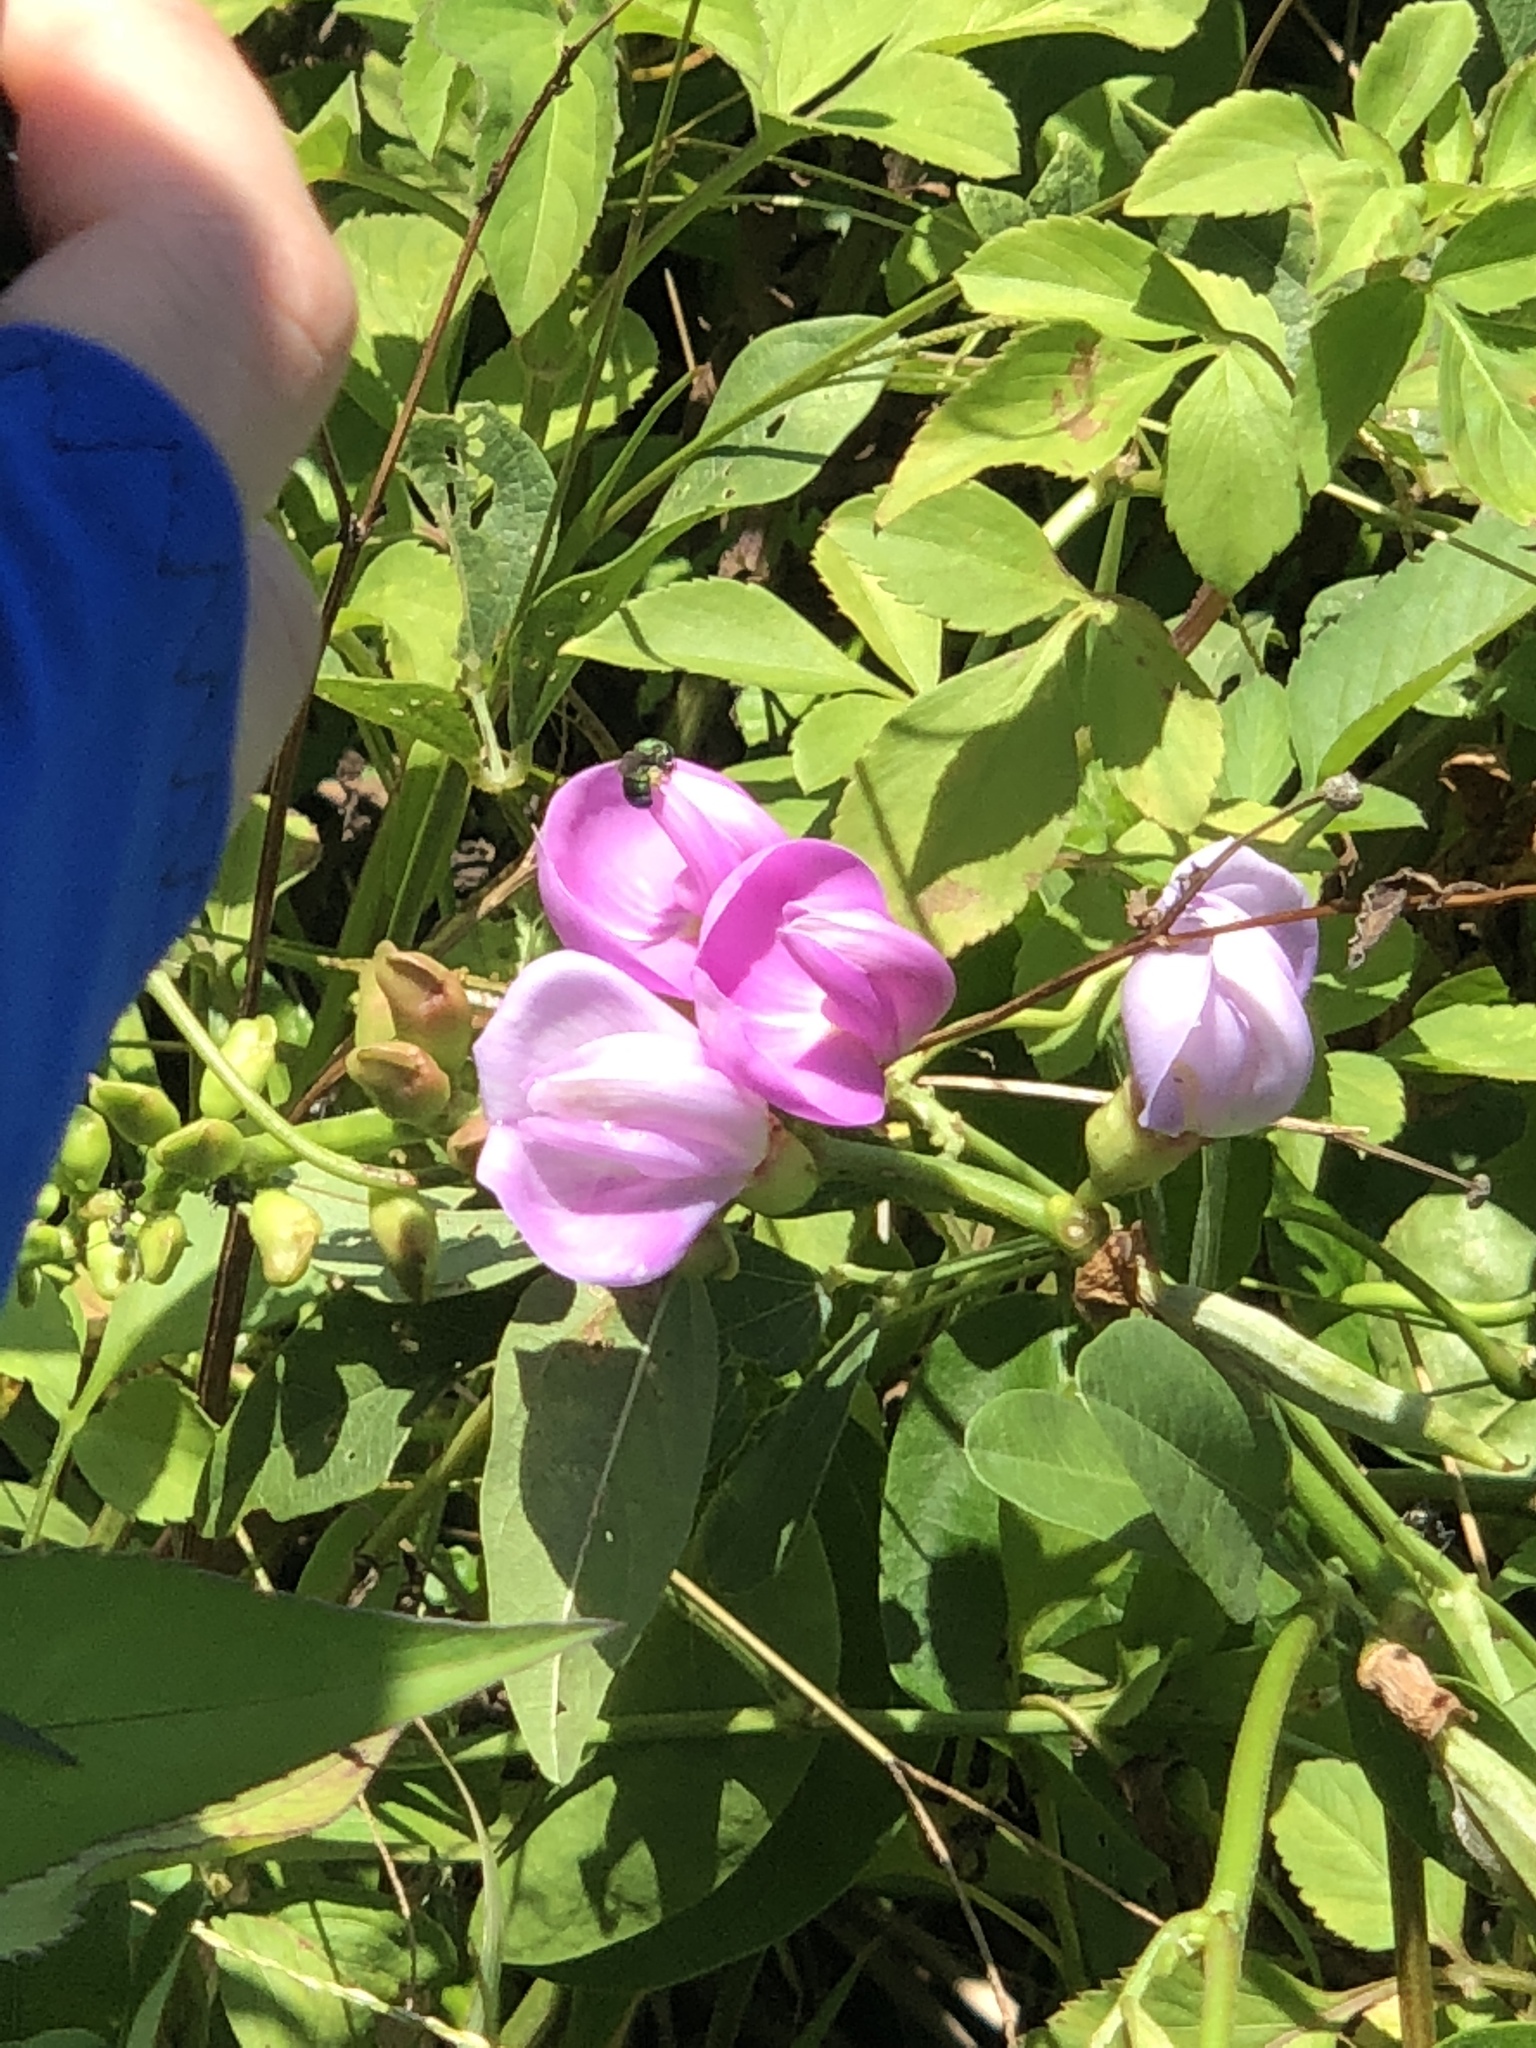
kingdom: Plantae
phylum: Tracheophyta
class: Magnoliopsida
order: Fabales
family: Fabaceae
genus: Canavalia
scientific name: Canavalia lineata
